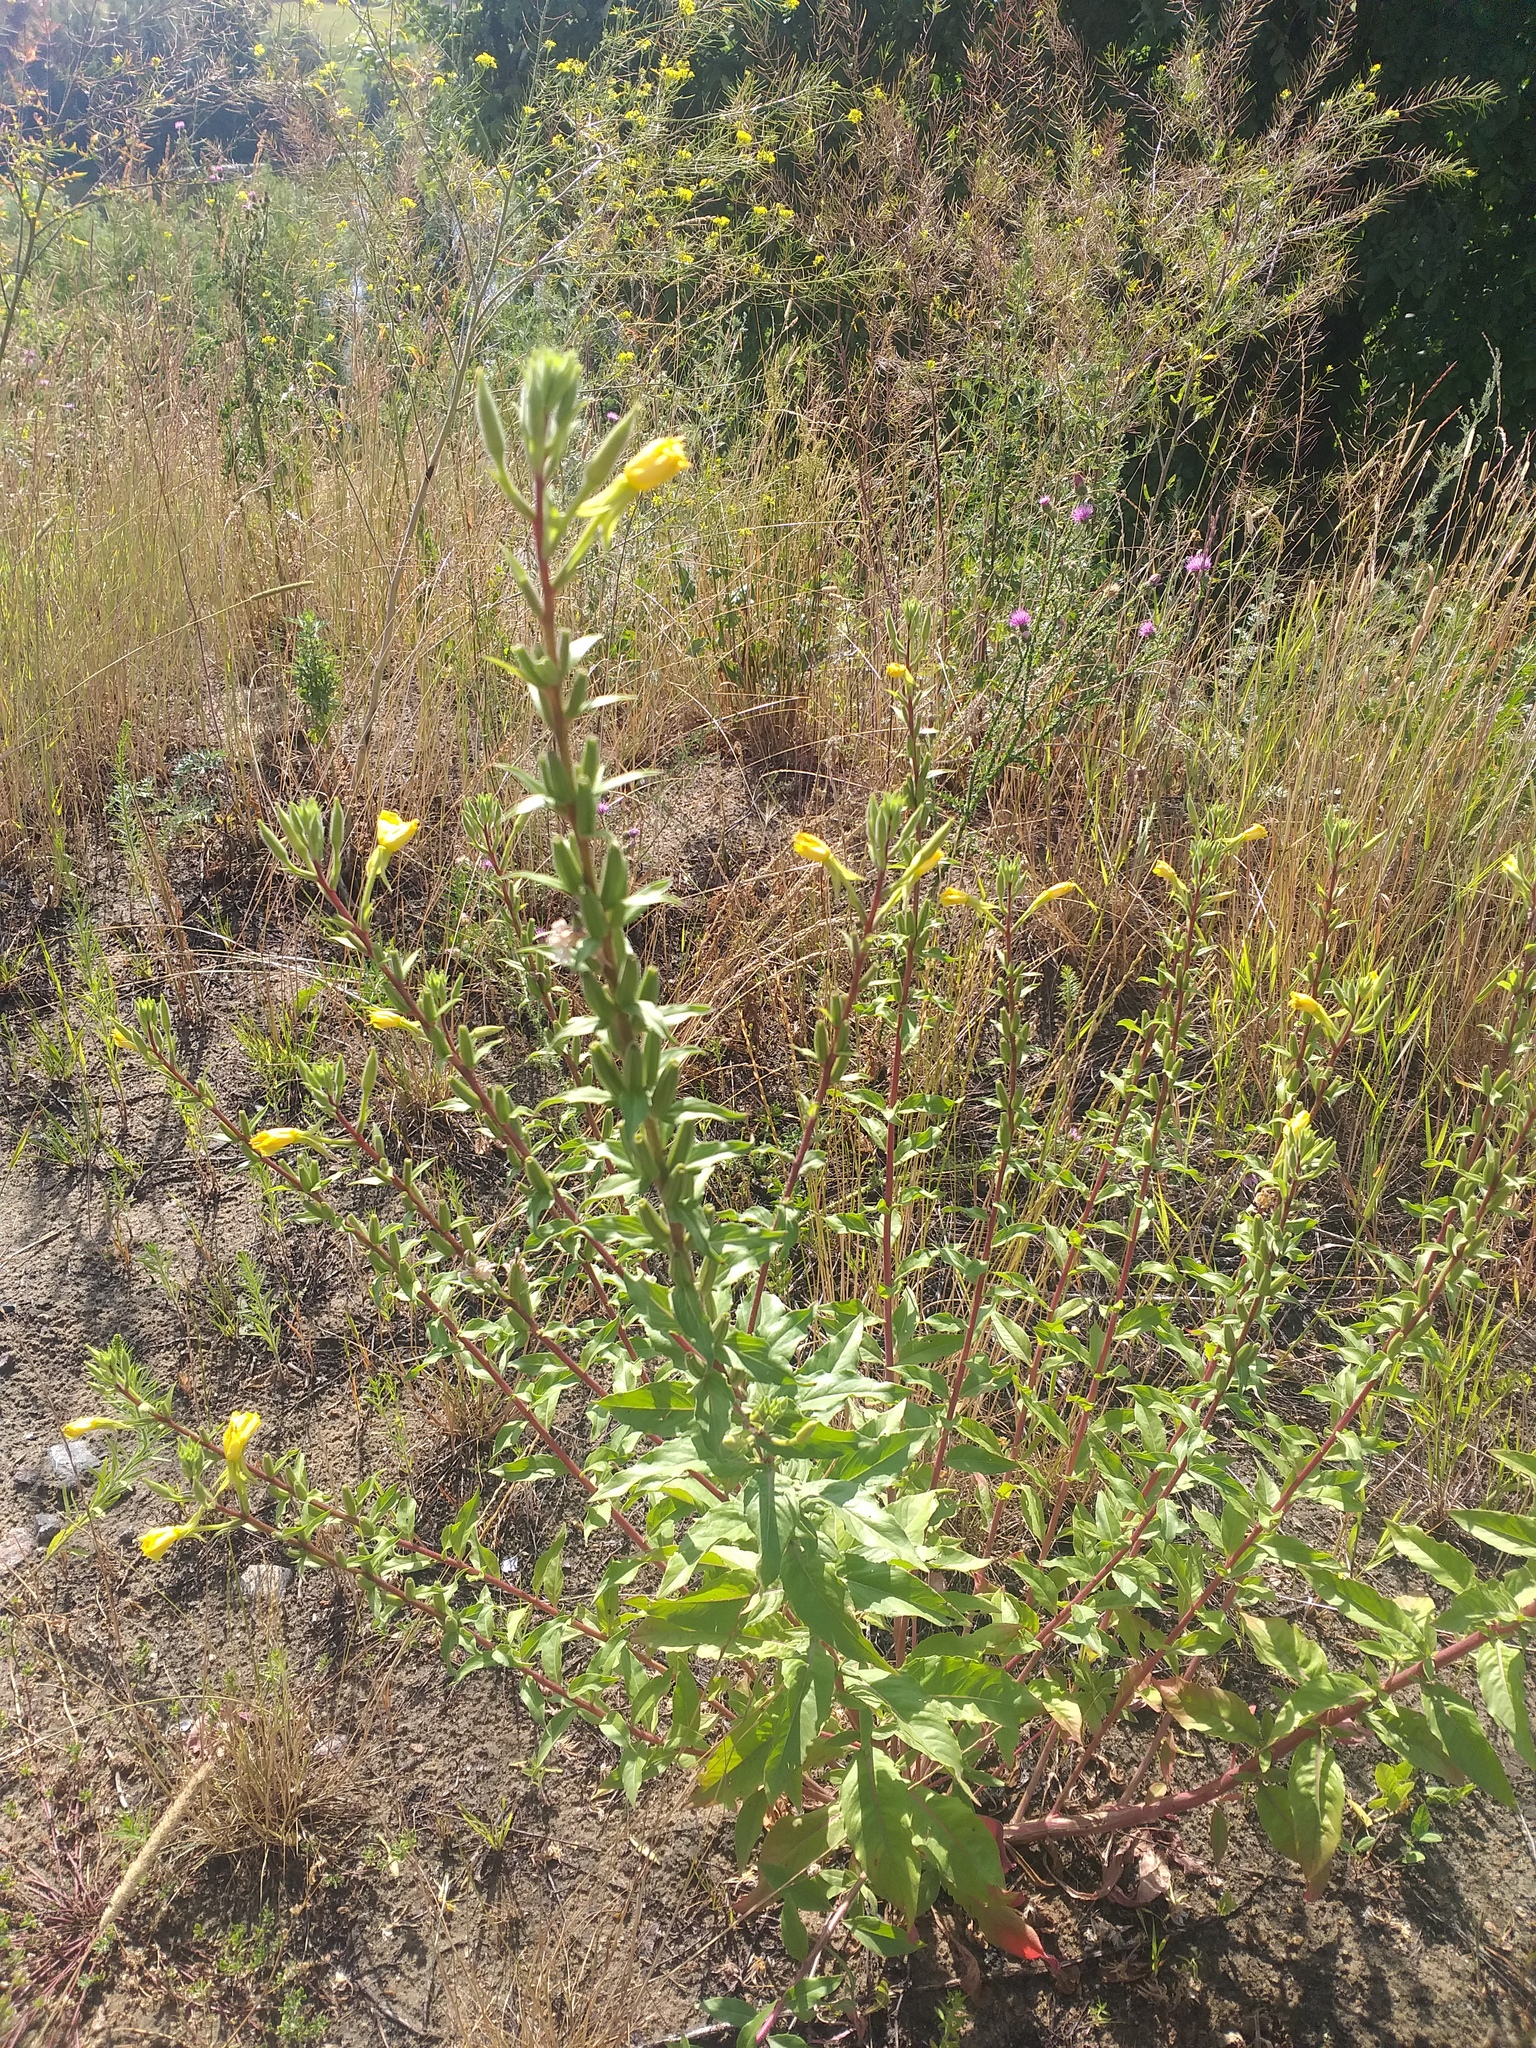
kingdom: Plantae
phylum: Tracheophyta
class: Magnoliopsida
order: Myrtales
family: Onagraceae
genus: Oenothera
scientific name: Oenothera rubricaulis
